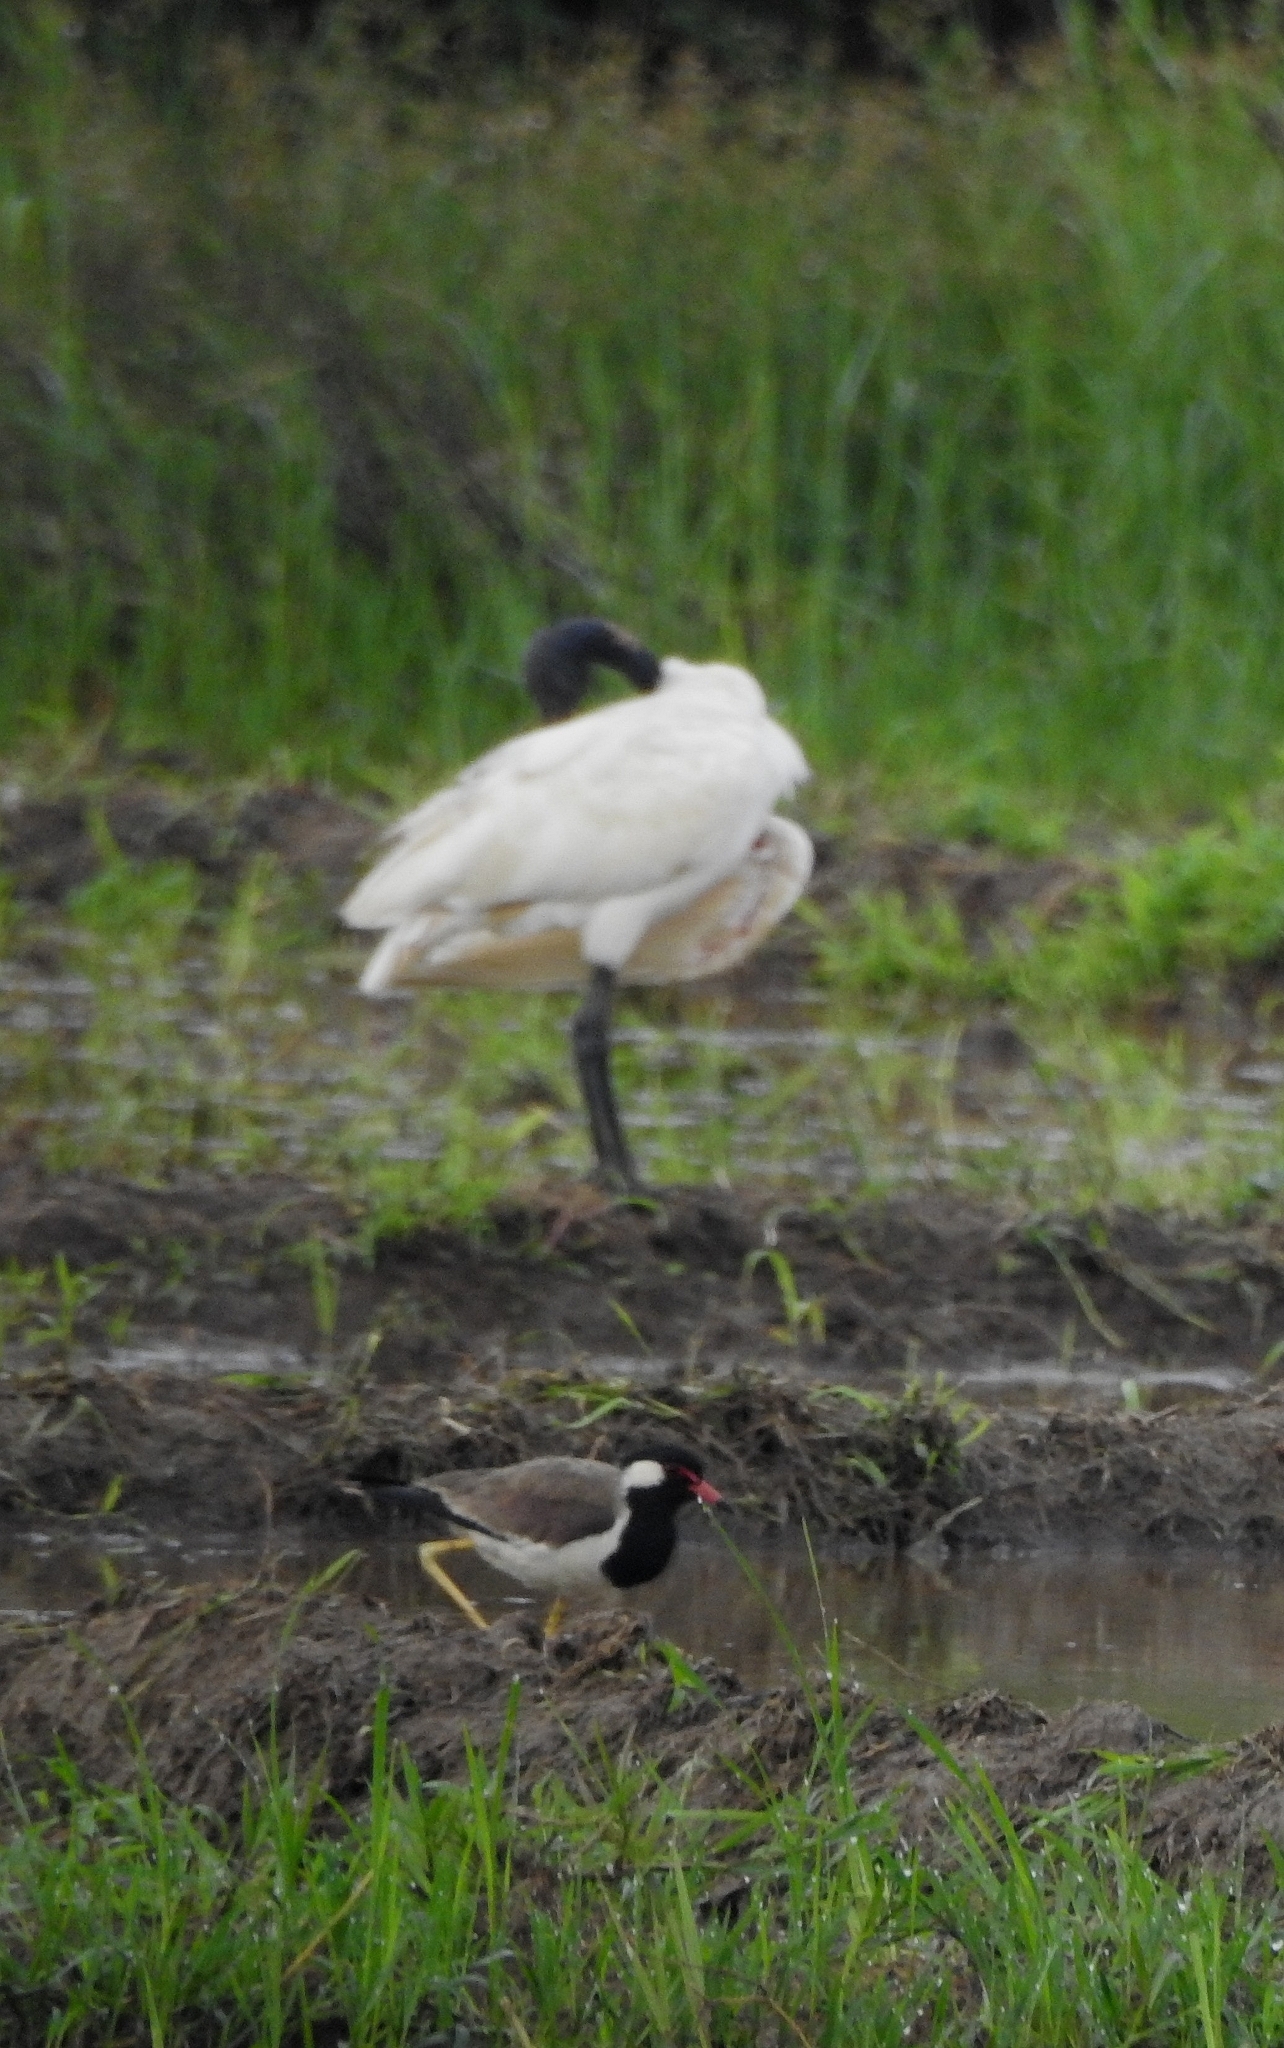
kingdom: Animalia
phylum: Chordata
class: Aves
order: Pelecaniformes
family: Threskiornithidae
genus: Threskiornis
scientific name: Threskiornis melanocephalus
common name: Black-headed ibis
